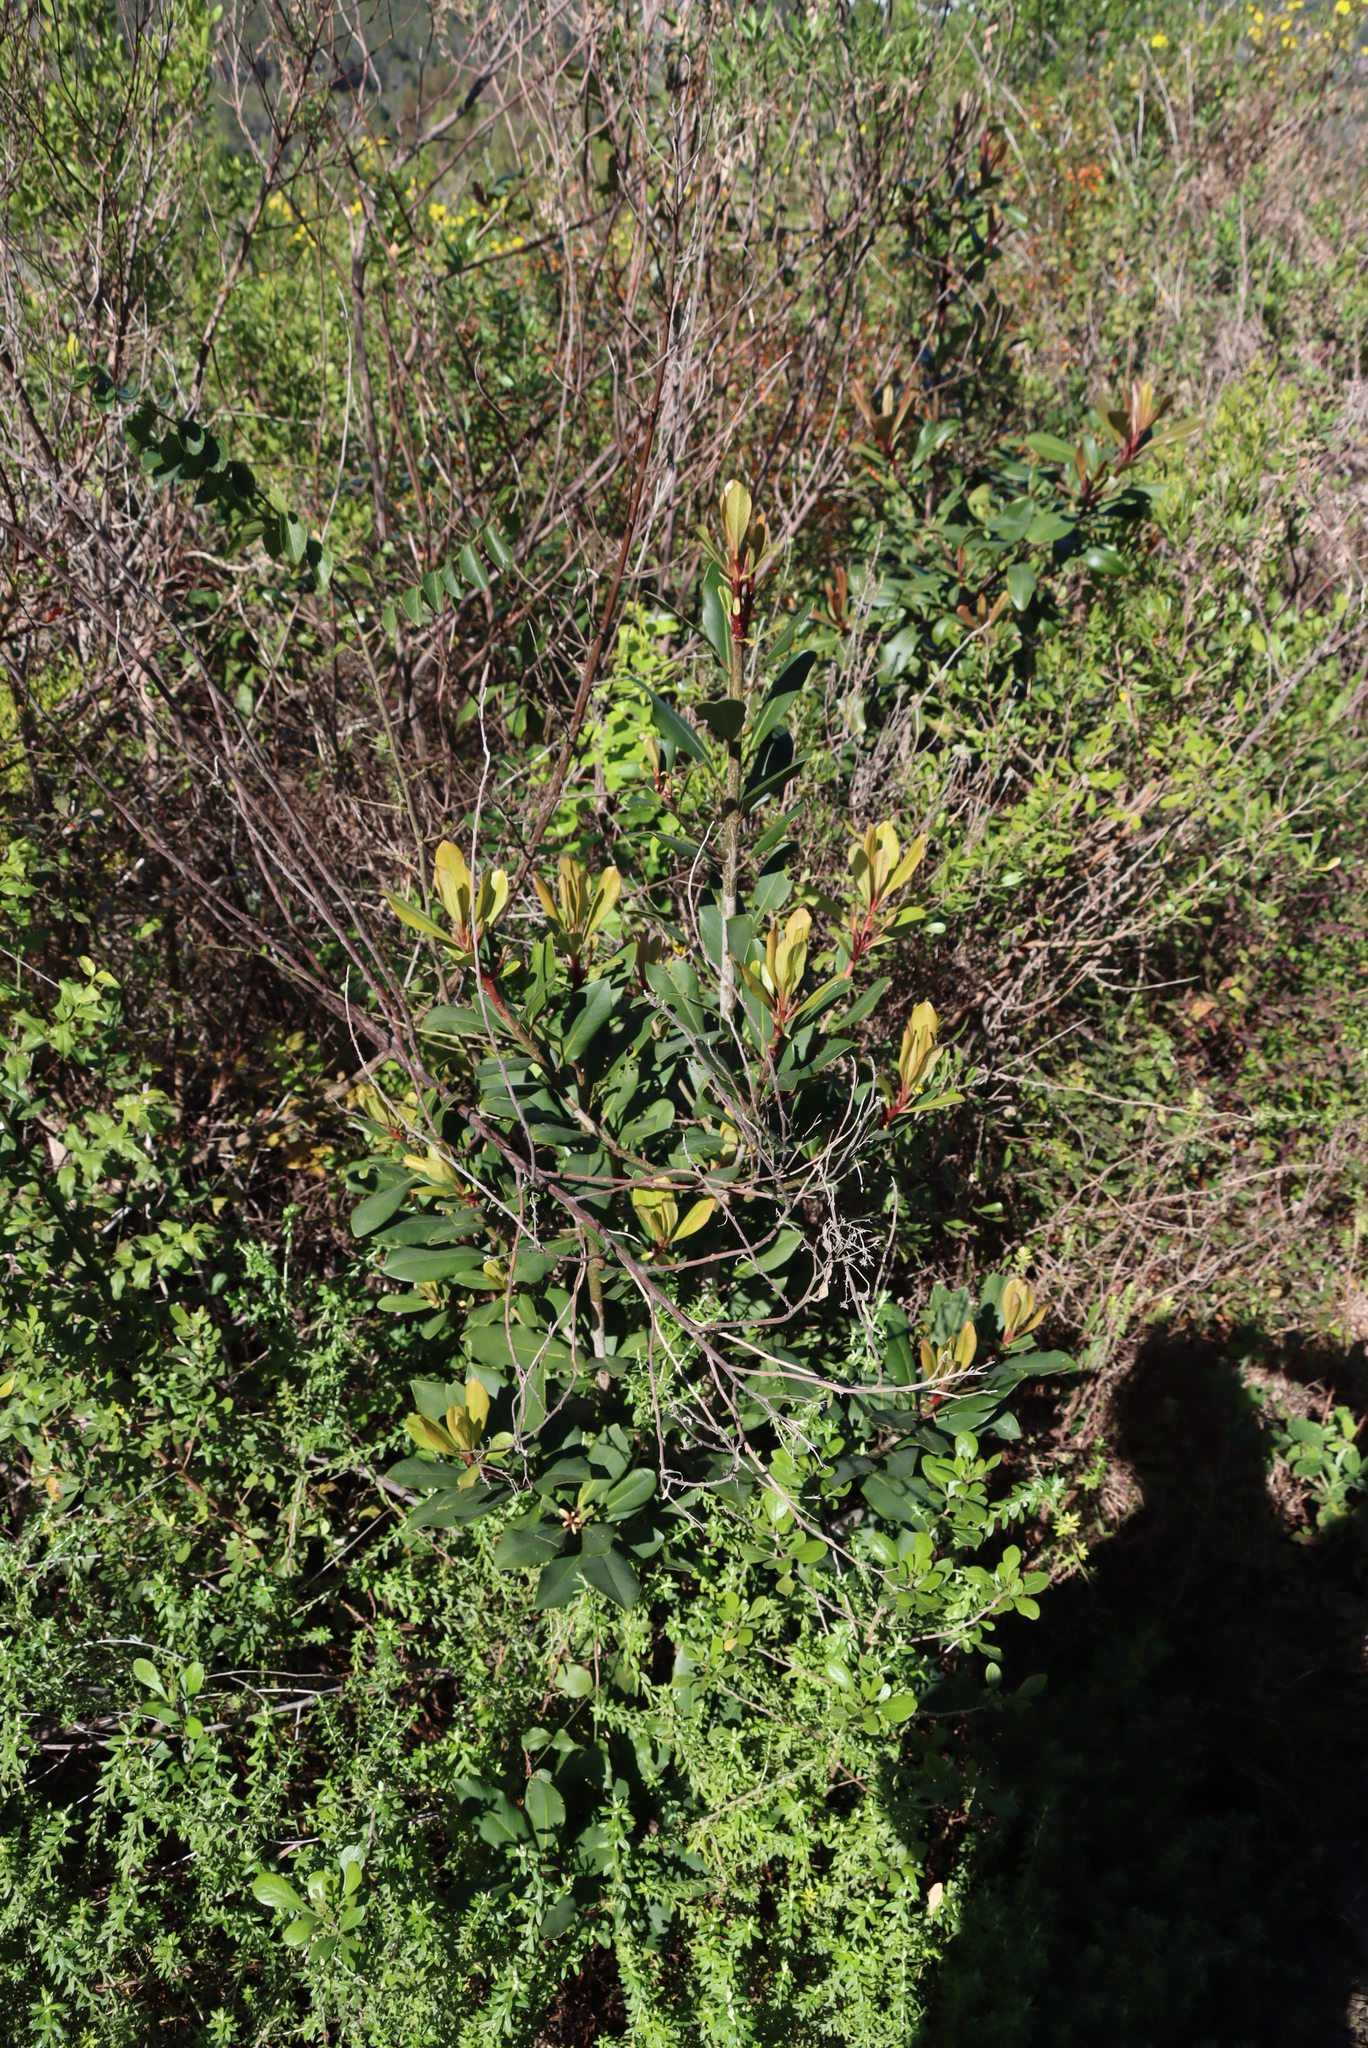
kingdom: Plantae
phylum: Tracheophyta
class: Magnoliopsida
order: Ericales
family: Primulaceae
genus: Myrsine
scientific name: Myrsine melanophloeos
